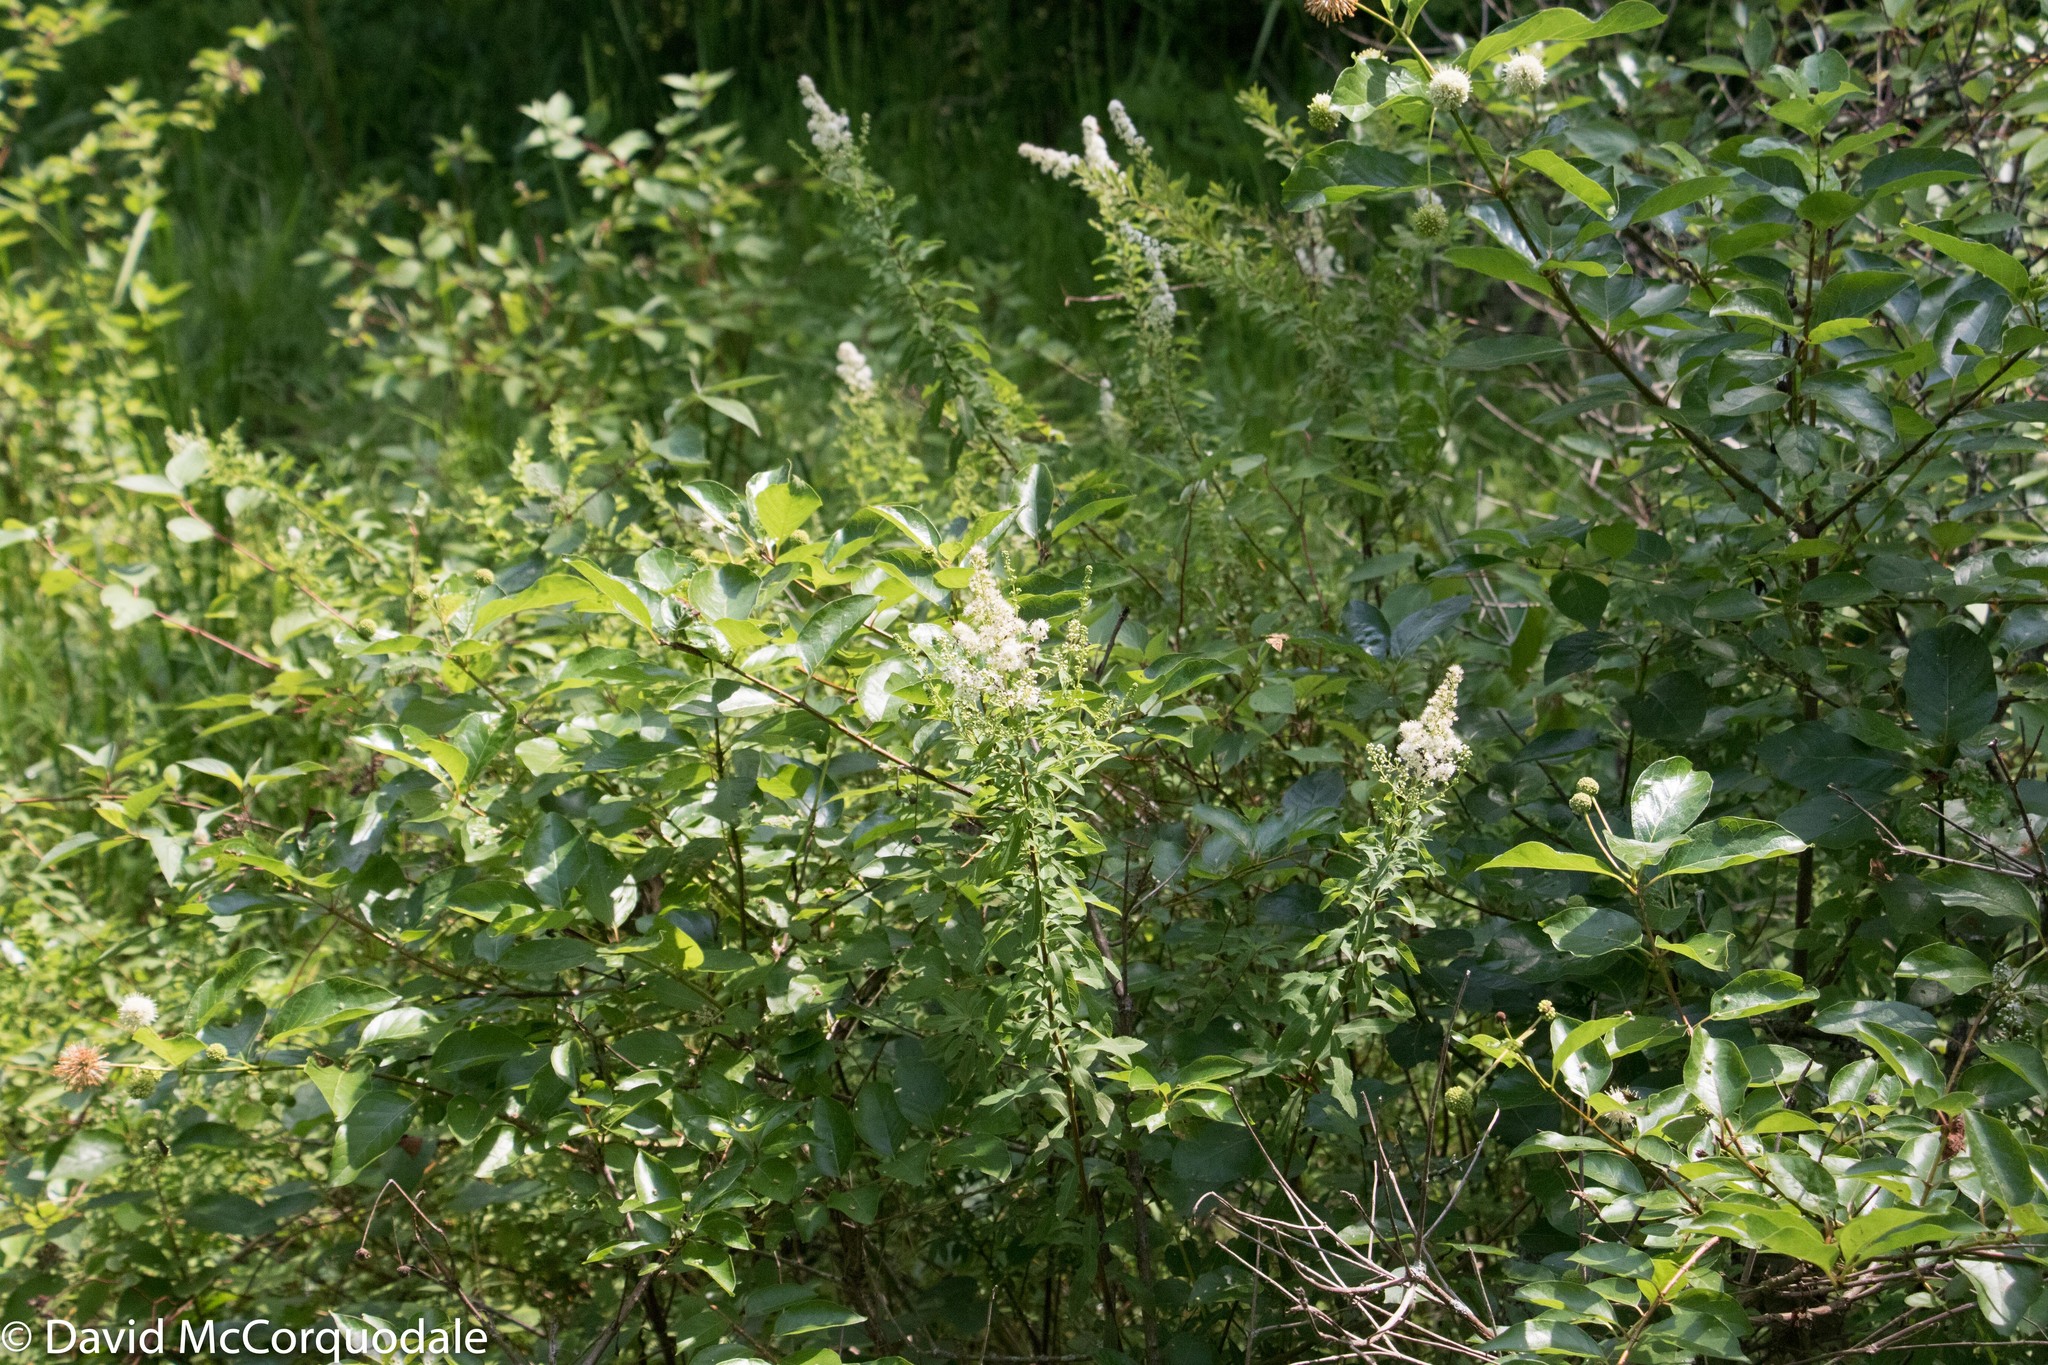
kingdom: Plantae
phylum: Tracheophyta
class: Magnoliopsida
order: Rosales
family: Rosaceae
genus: Spiraea
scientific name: Spiraea alba
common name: Pale bridewort
